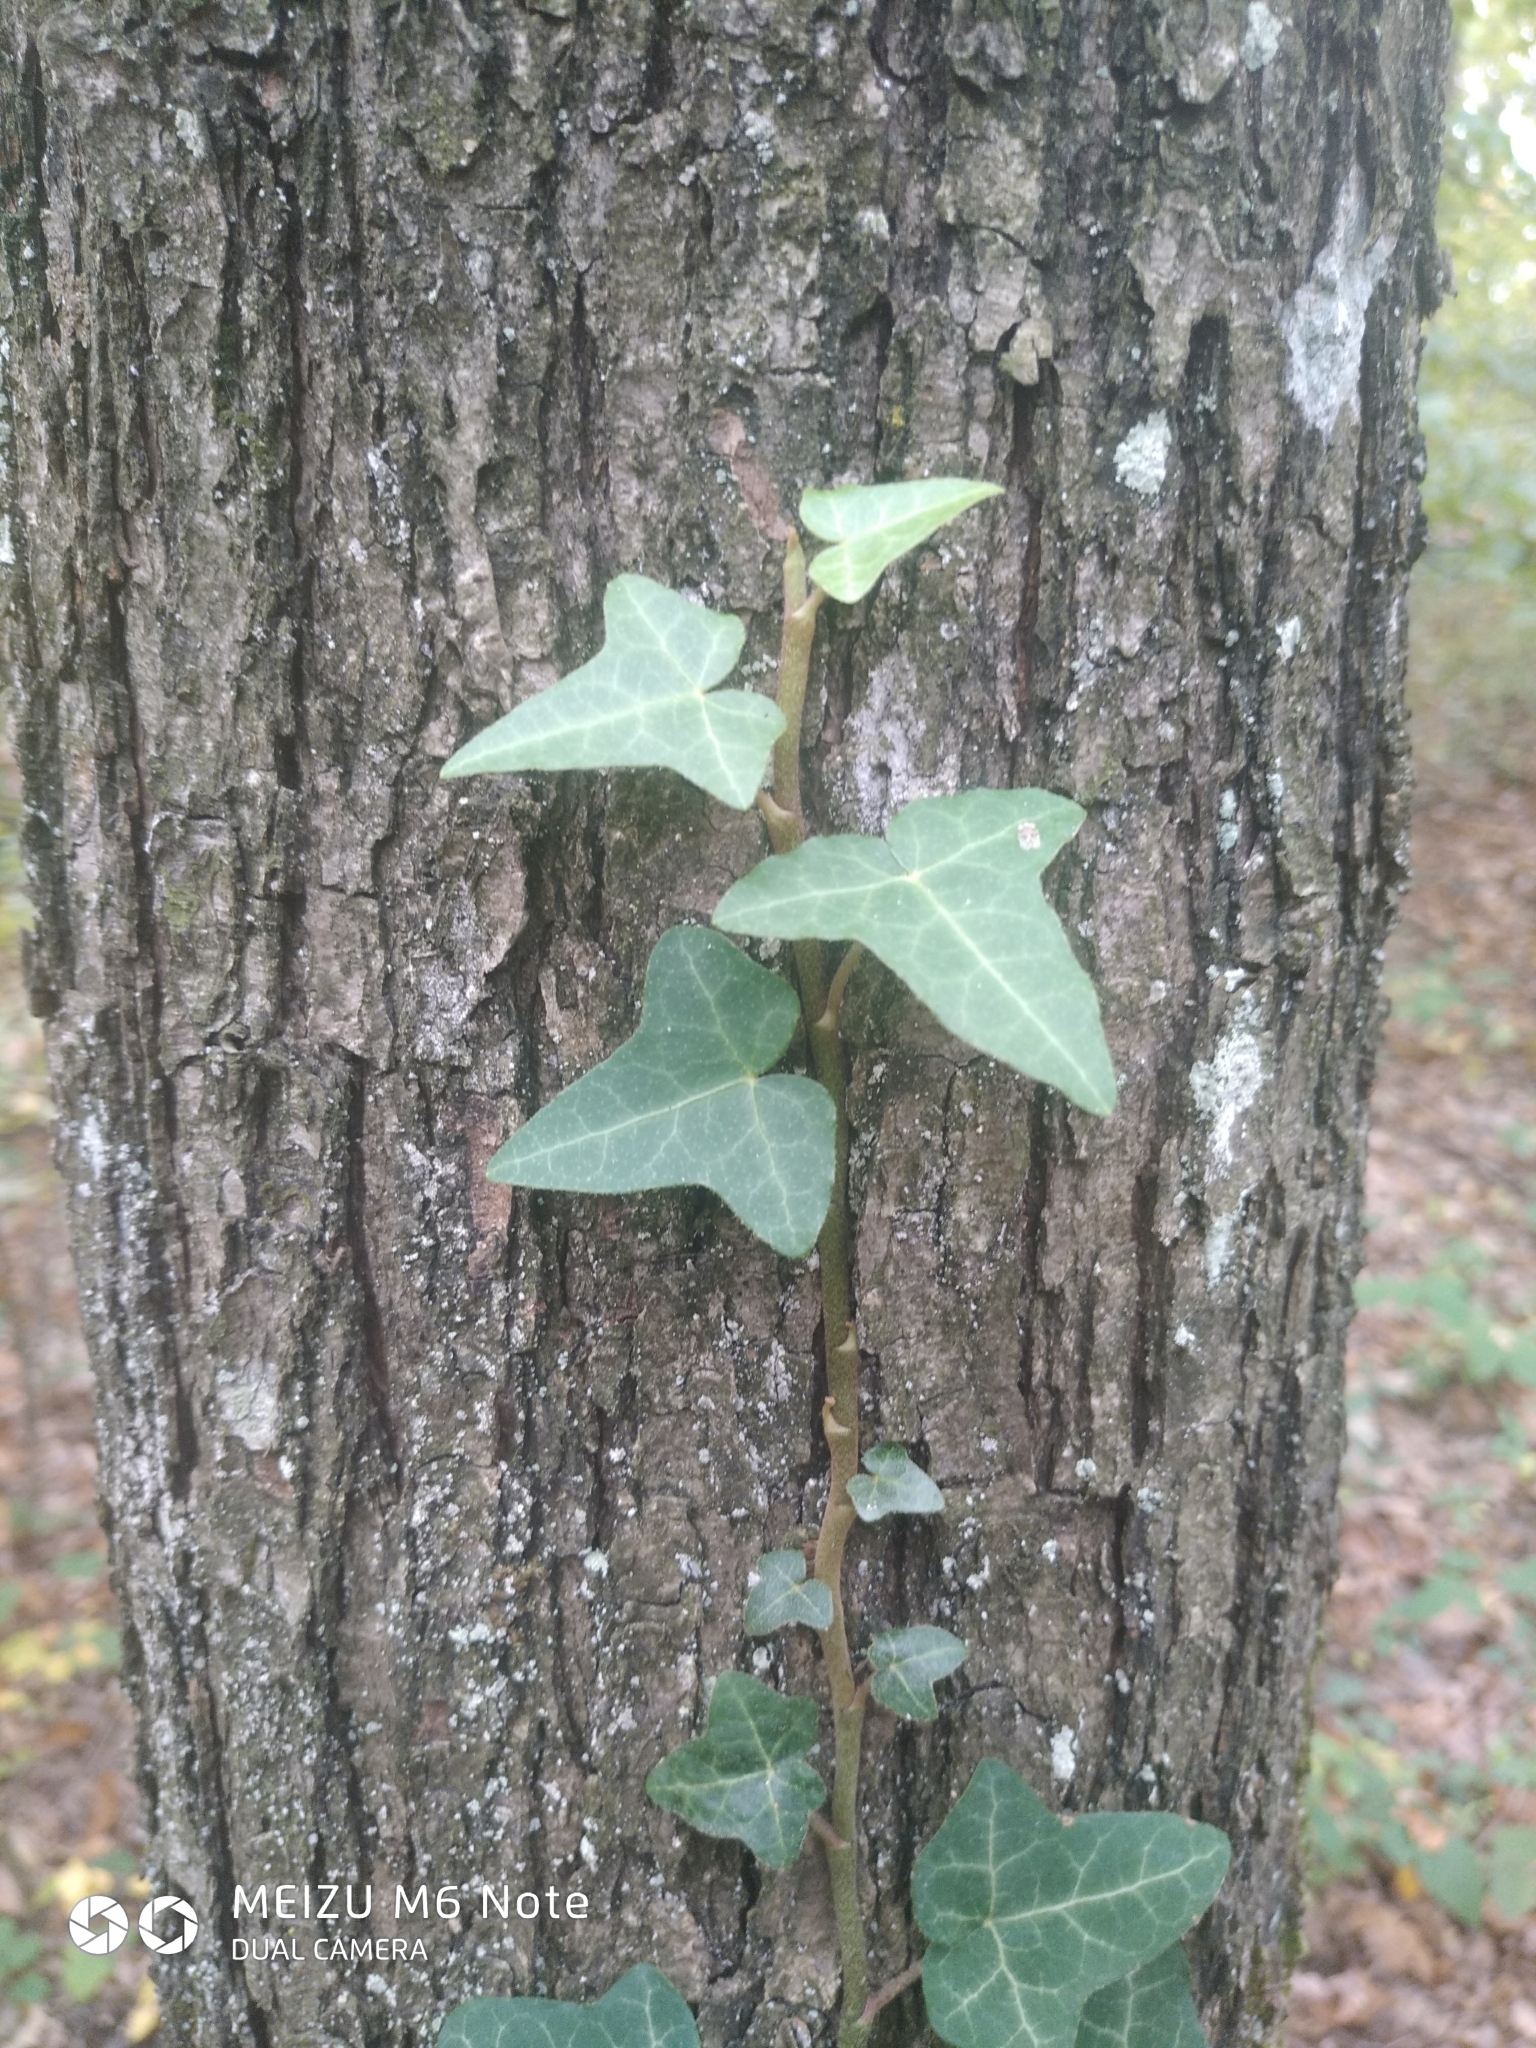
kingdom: Plantae
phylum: Tracheophyta
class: Magnoliopsida
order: Apiales
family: Araliaceae
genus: Hedera
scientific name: Hedera helix
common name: Ivy
